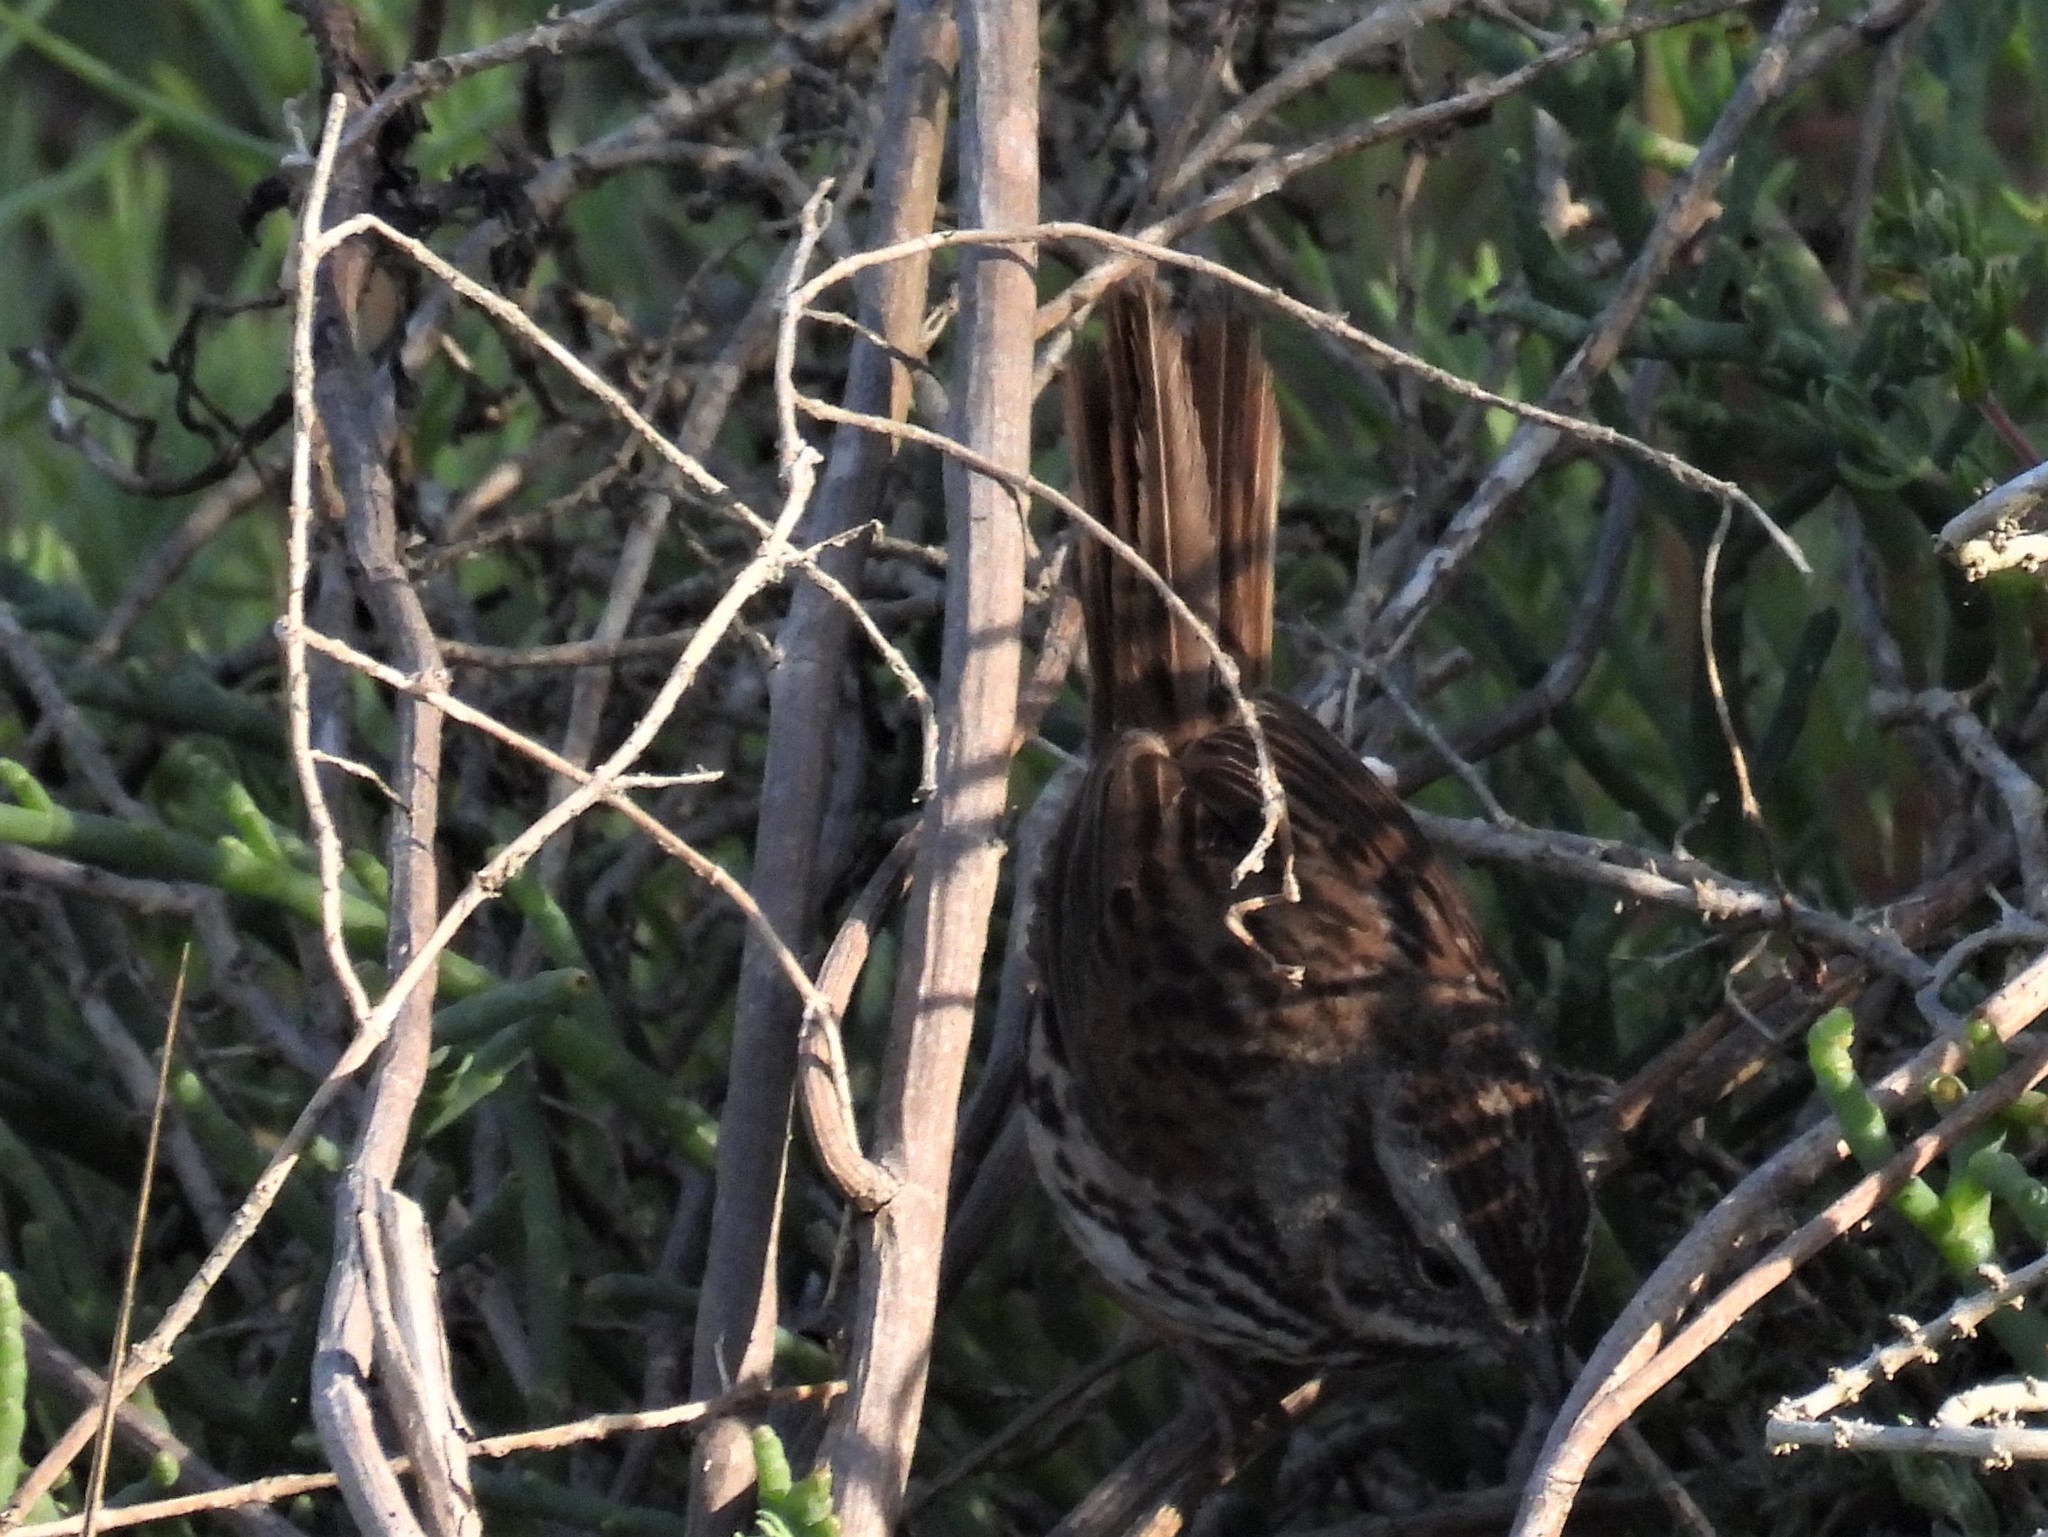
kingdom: Animalia
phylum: Chordata
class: Aves
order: Passeriformes
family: Passerellidae
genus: Melospiza
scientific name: Melospiza melodia
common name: Song sparrow
